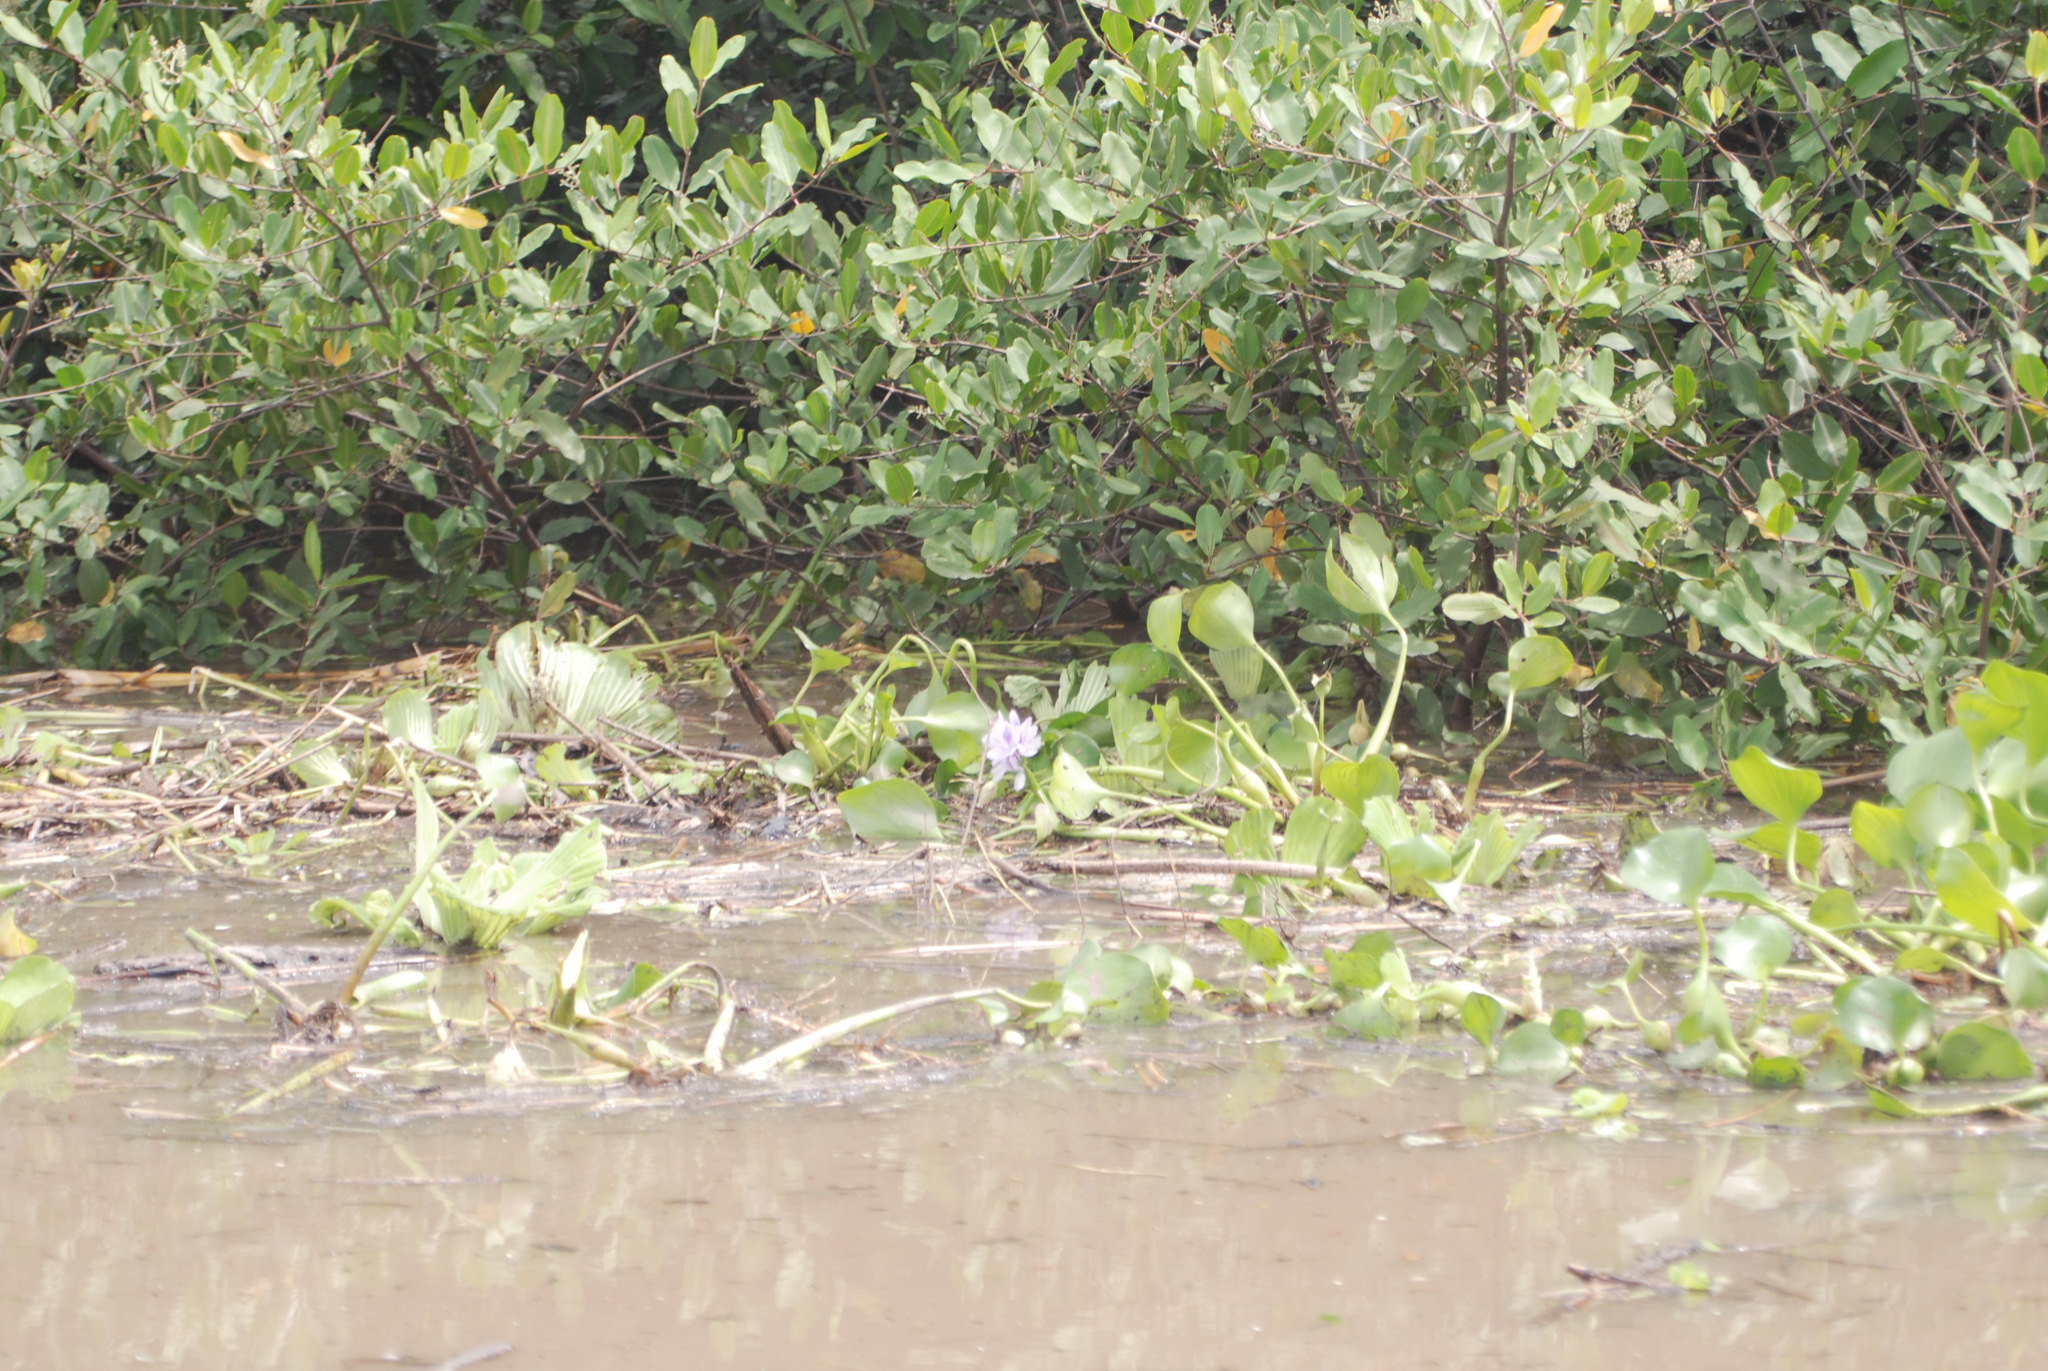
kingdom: Plantae
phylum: Tracheophyta
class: Liliopsida
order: Commelinales
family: Pontederiaceae
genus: Pontederia
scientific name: Pontederia crassipes
